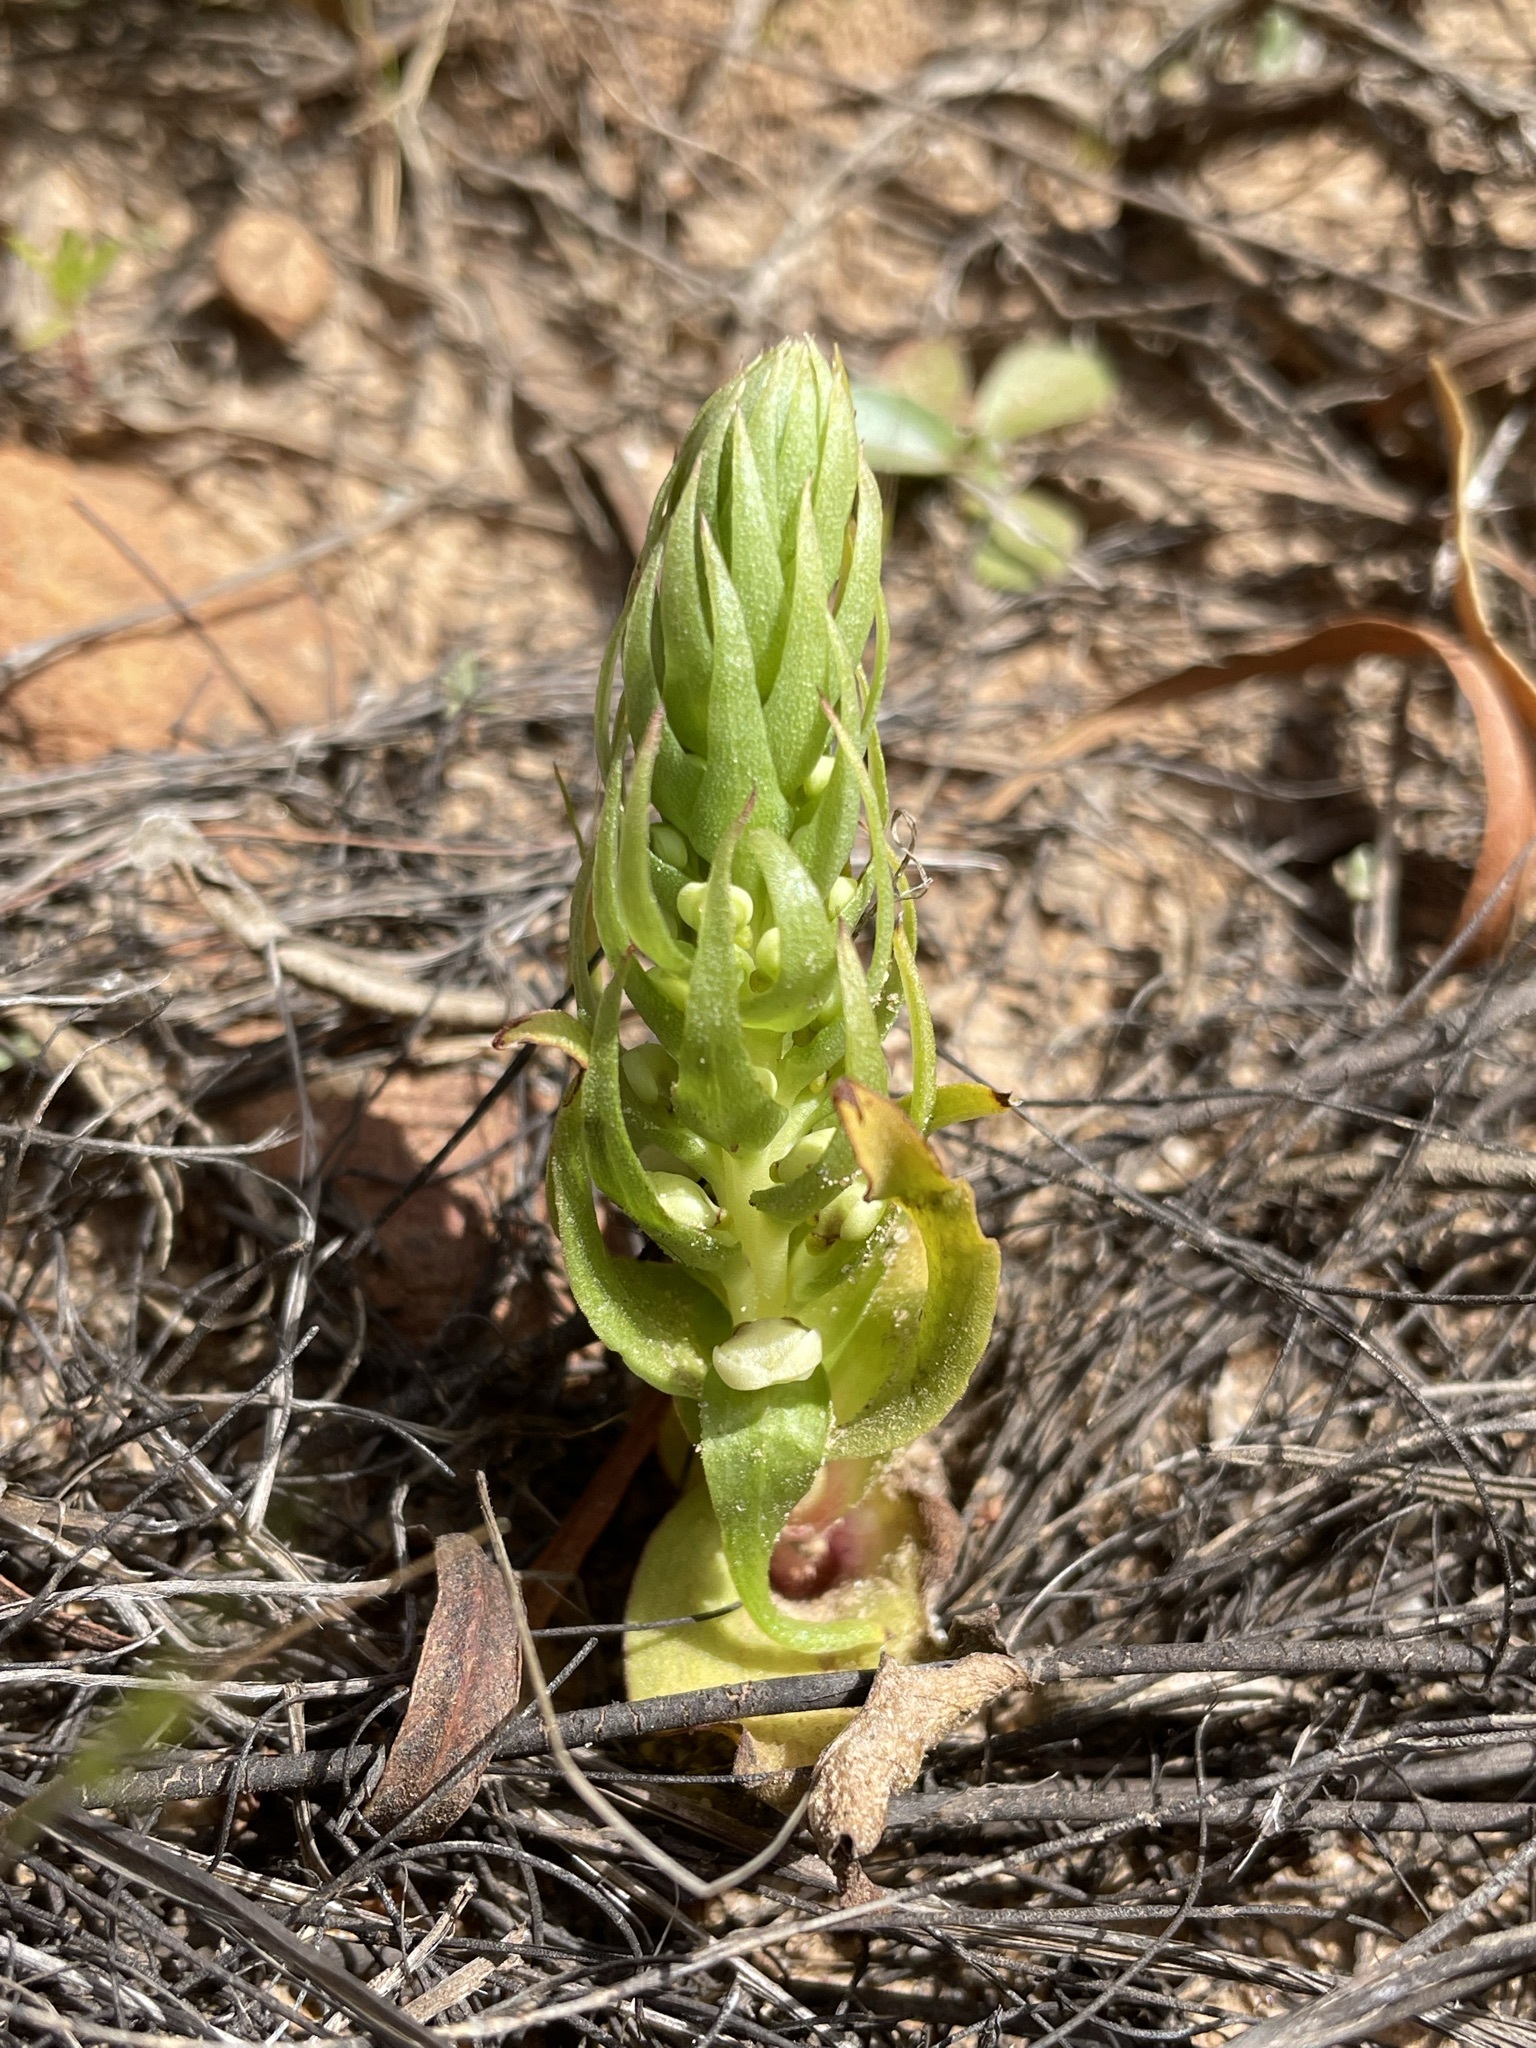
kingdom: Plantae
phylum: Tracheophyta
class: Liliopsida
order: Asparagales
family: Orchidaceae
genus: Satyrium
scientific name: Satyrium bicallosum
